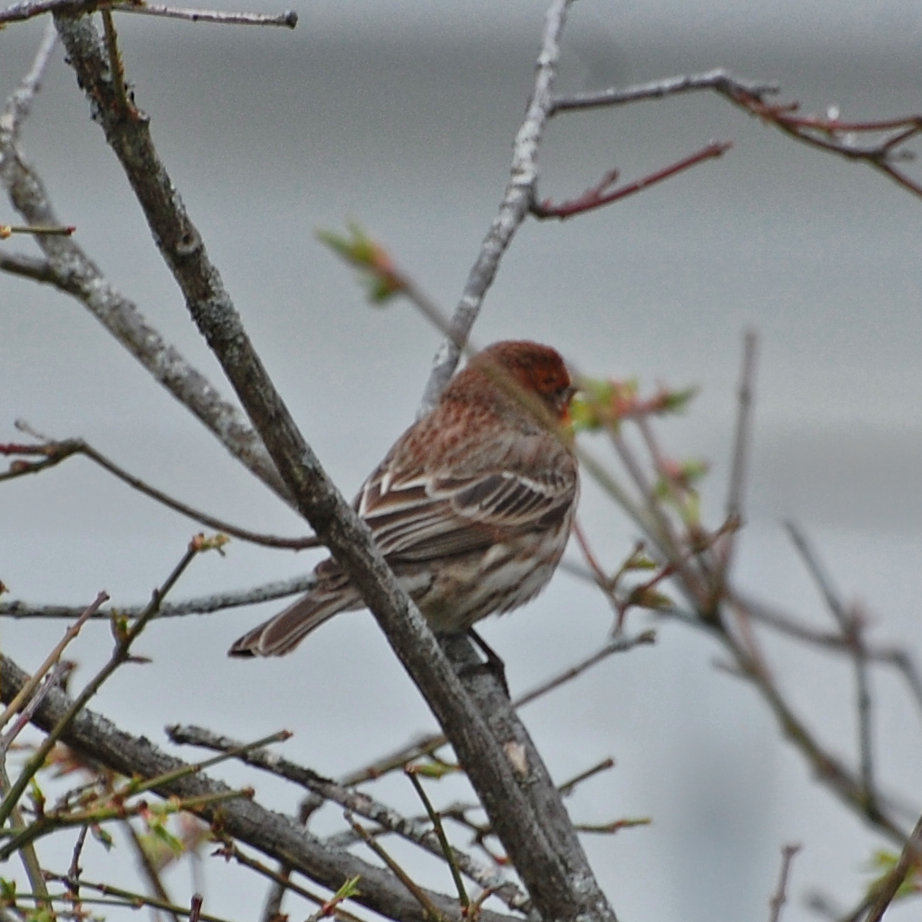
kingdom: Animalia
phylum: Chordata
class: Aves
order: Passeriformes
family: Fringillidae
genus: Haemorhous
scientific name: Haemorhous mexicanus
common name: House finch
